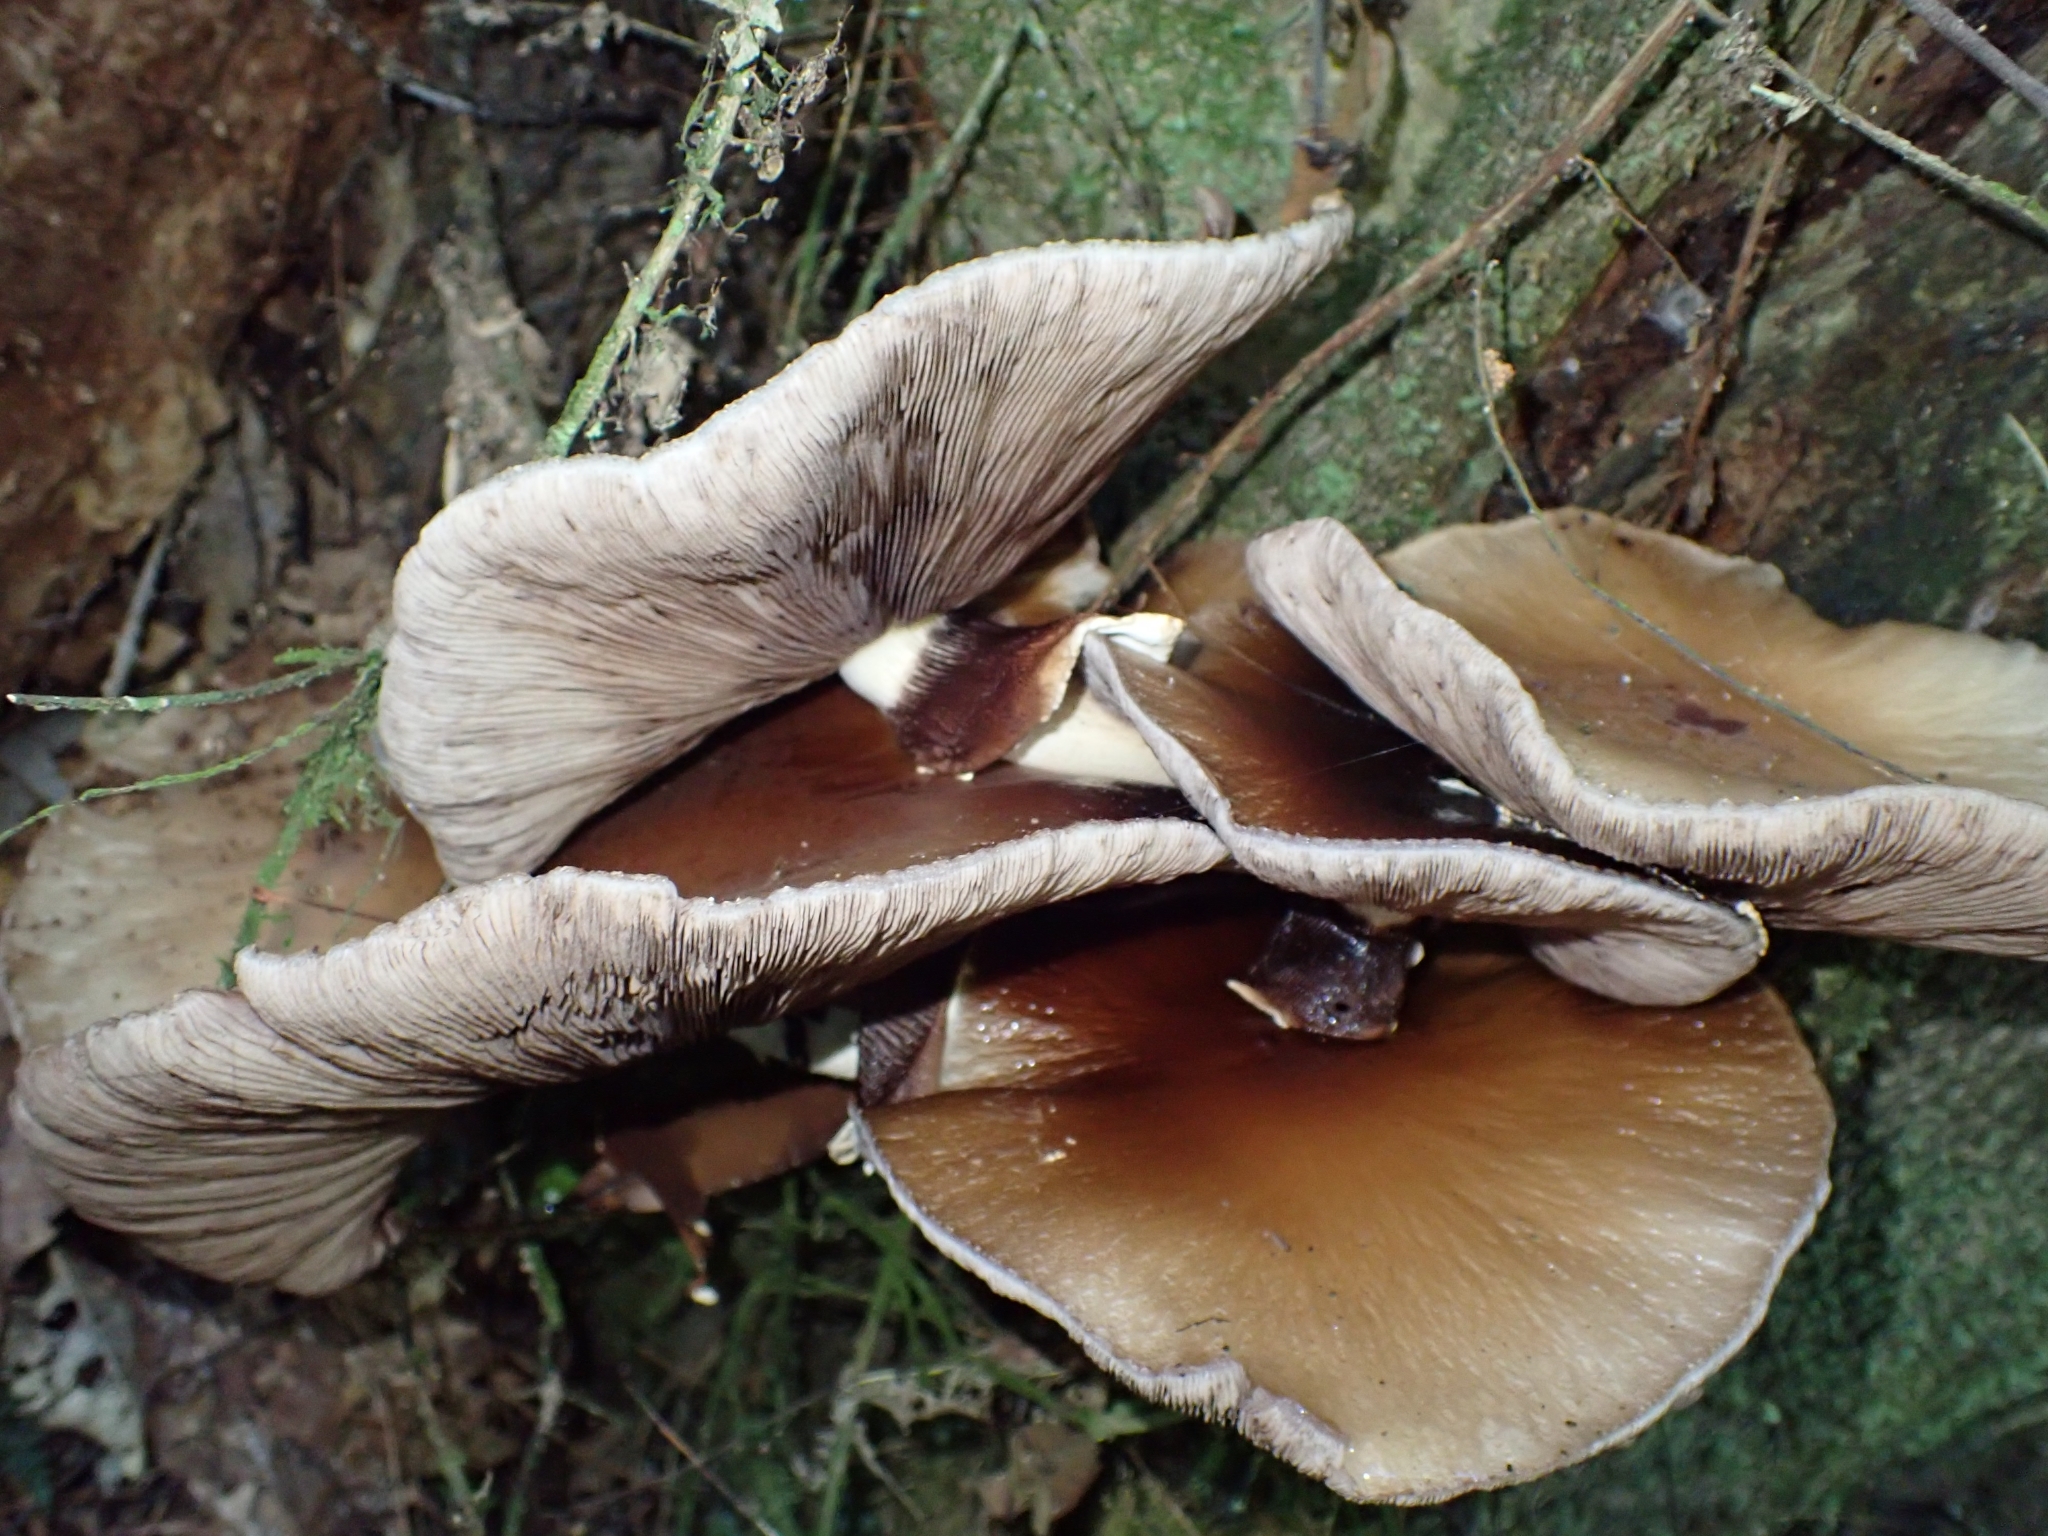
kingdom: Fungi
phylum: Basidiomycota
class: Agaricomycetes
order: Agaricales
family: Tubariaceae
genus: Cyclocybe
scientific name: Cyclocybe parasitica
